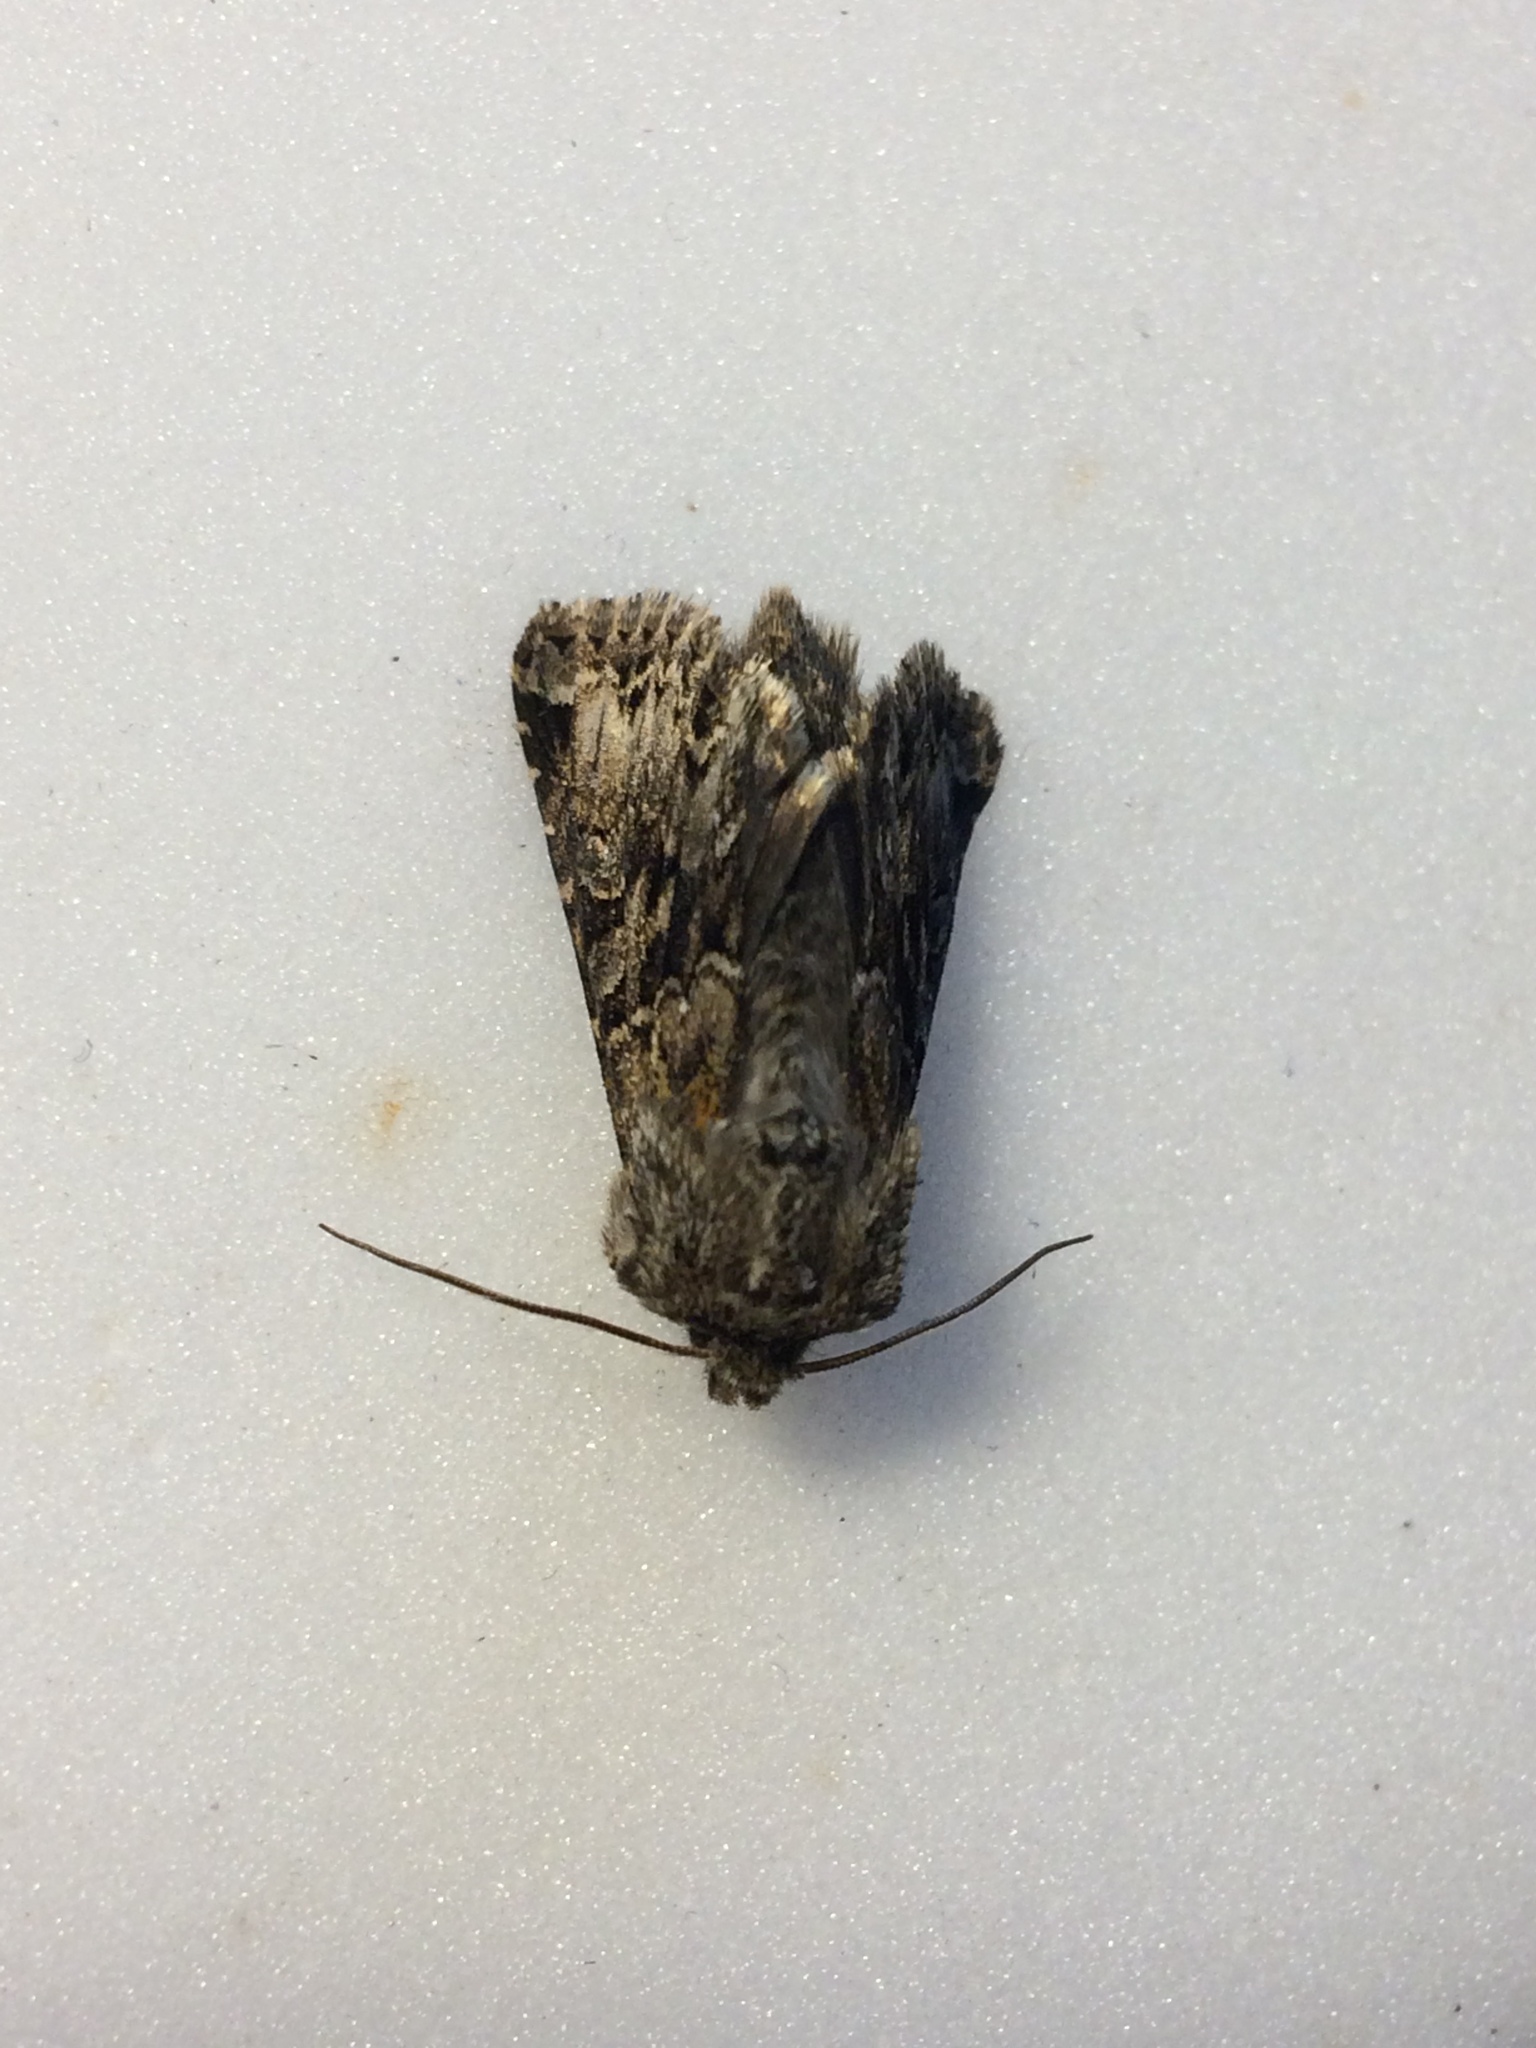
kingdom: Animalia
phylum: Arthropoda
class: Insecta
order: Lepidoptera
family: Noctuidae
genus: Hada
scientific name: Hada plebeja
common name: Shears
